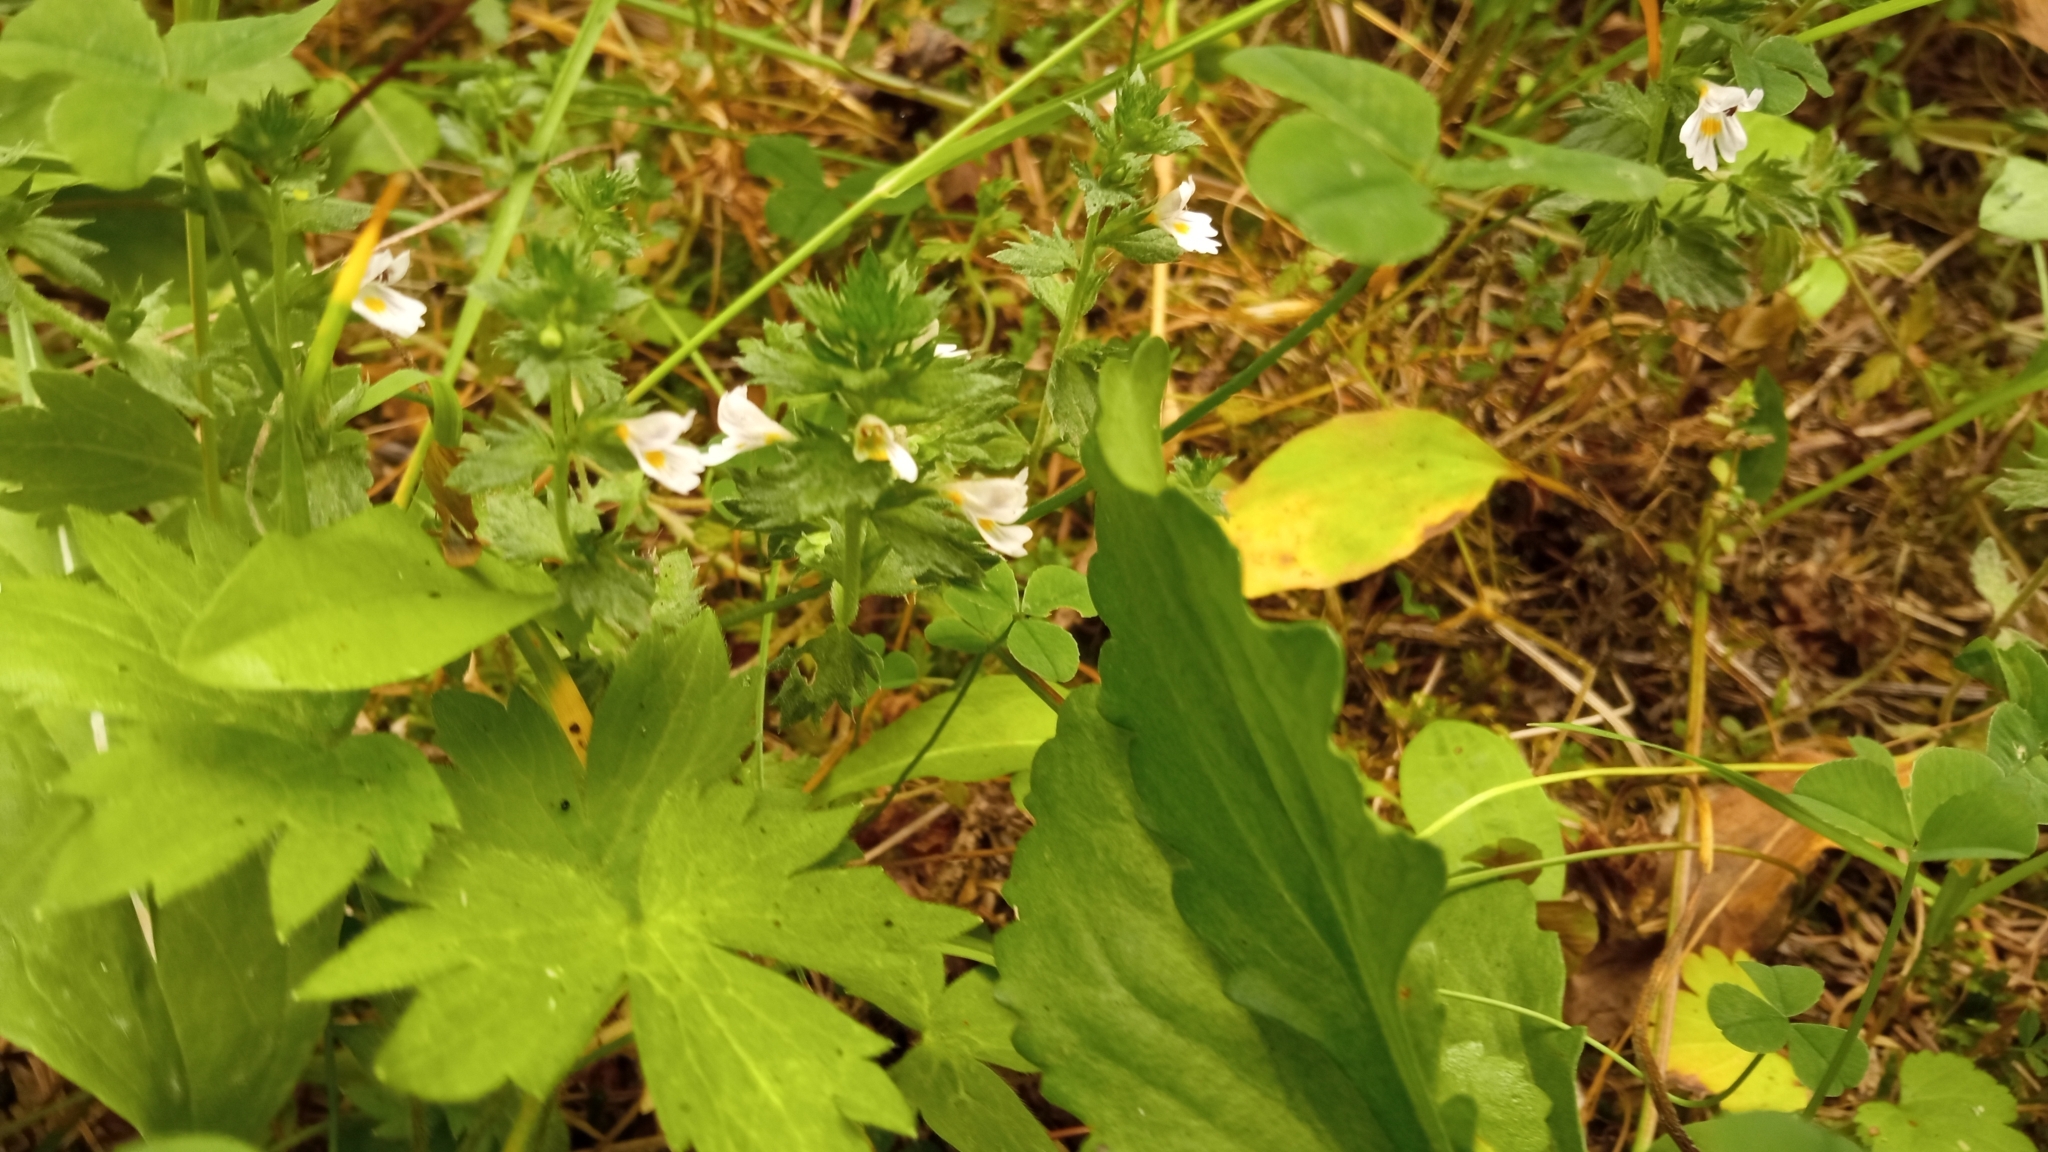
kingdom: Plantae
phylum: Tracheophyta
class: Magnoliopsida
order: Asterales
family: Asteraceae
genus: Antennaria
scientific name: Antennaria dioica
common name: Mountain everlasting
